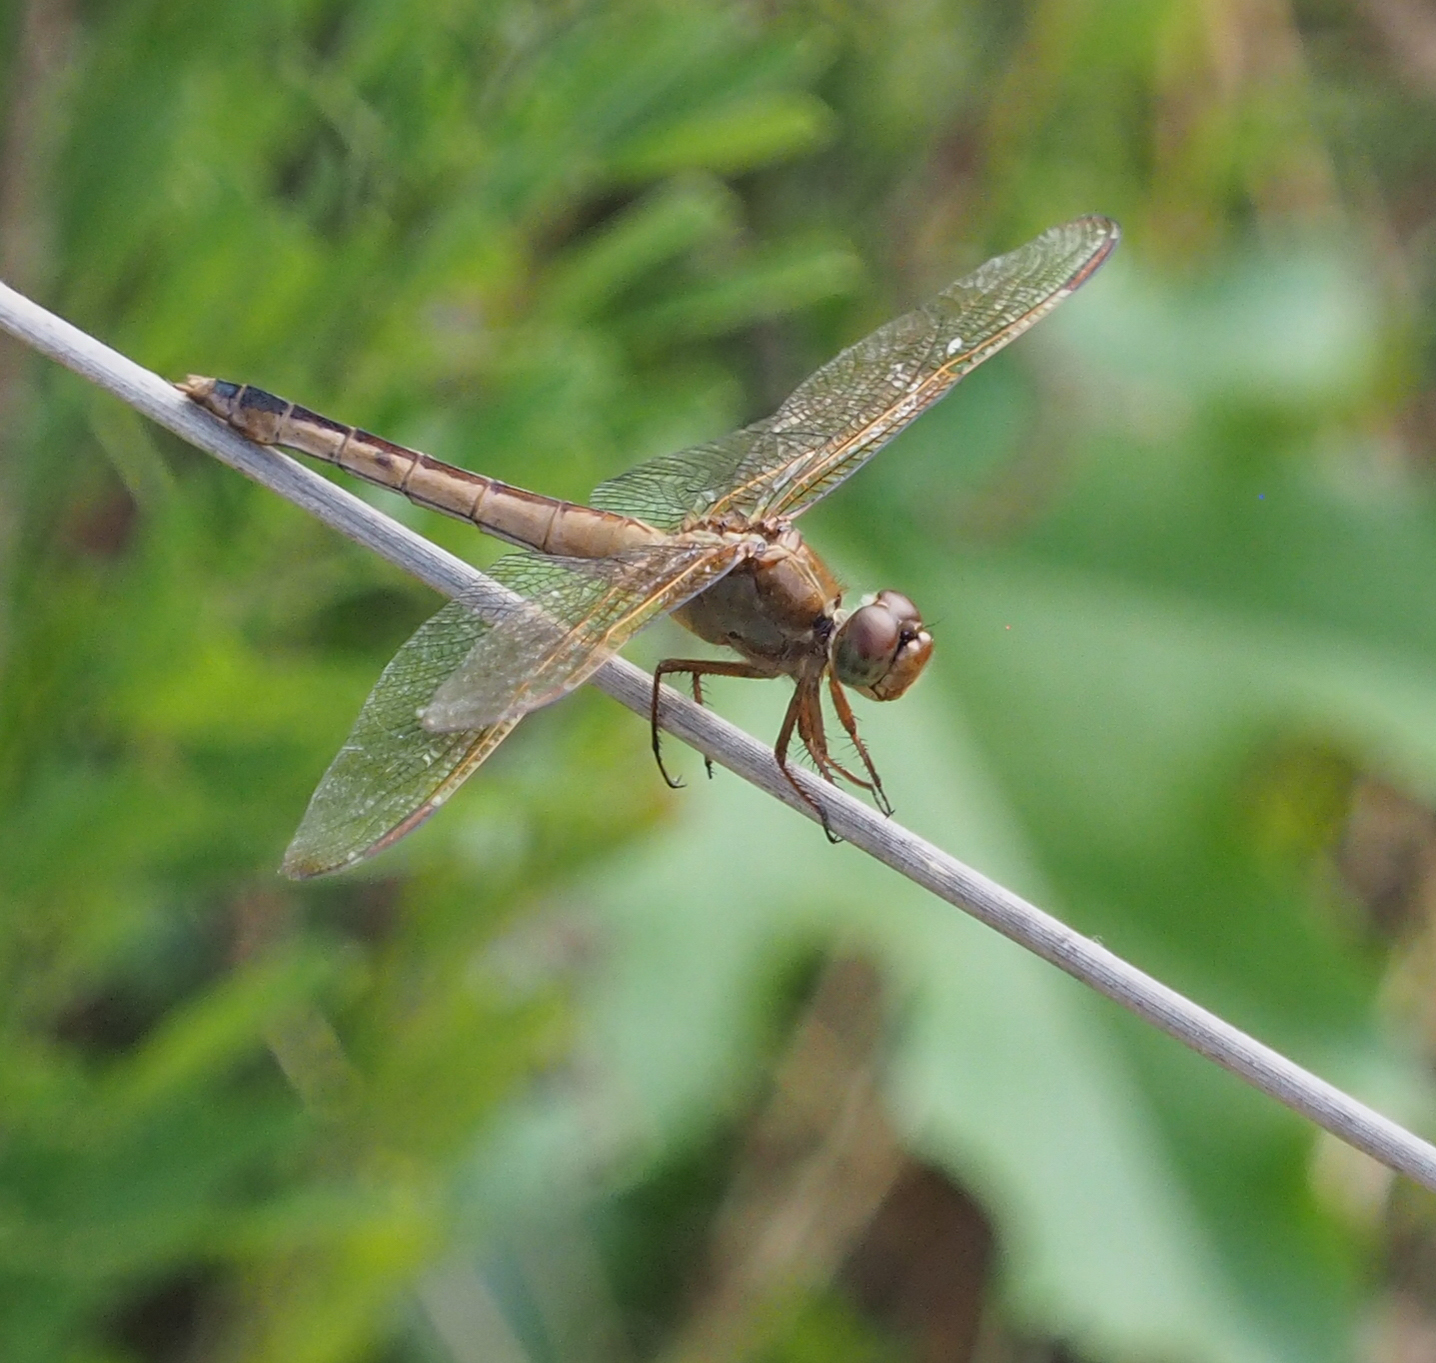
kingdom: Animalia
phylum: Arthropoda
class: Insecta
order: Odonata
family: Libellulidae
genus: Libellula
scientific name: Libellula needhami
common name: Needham's skimmer
